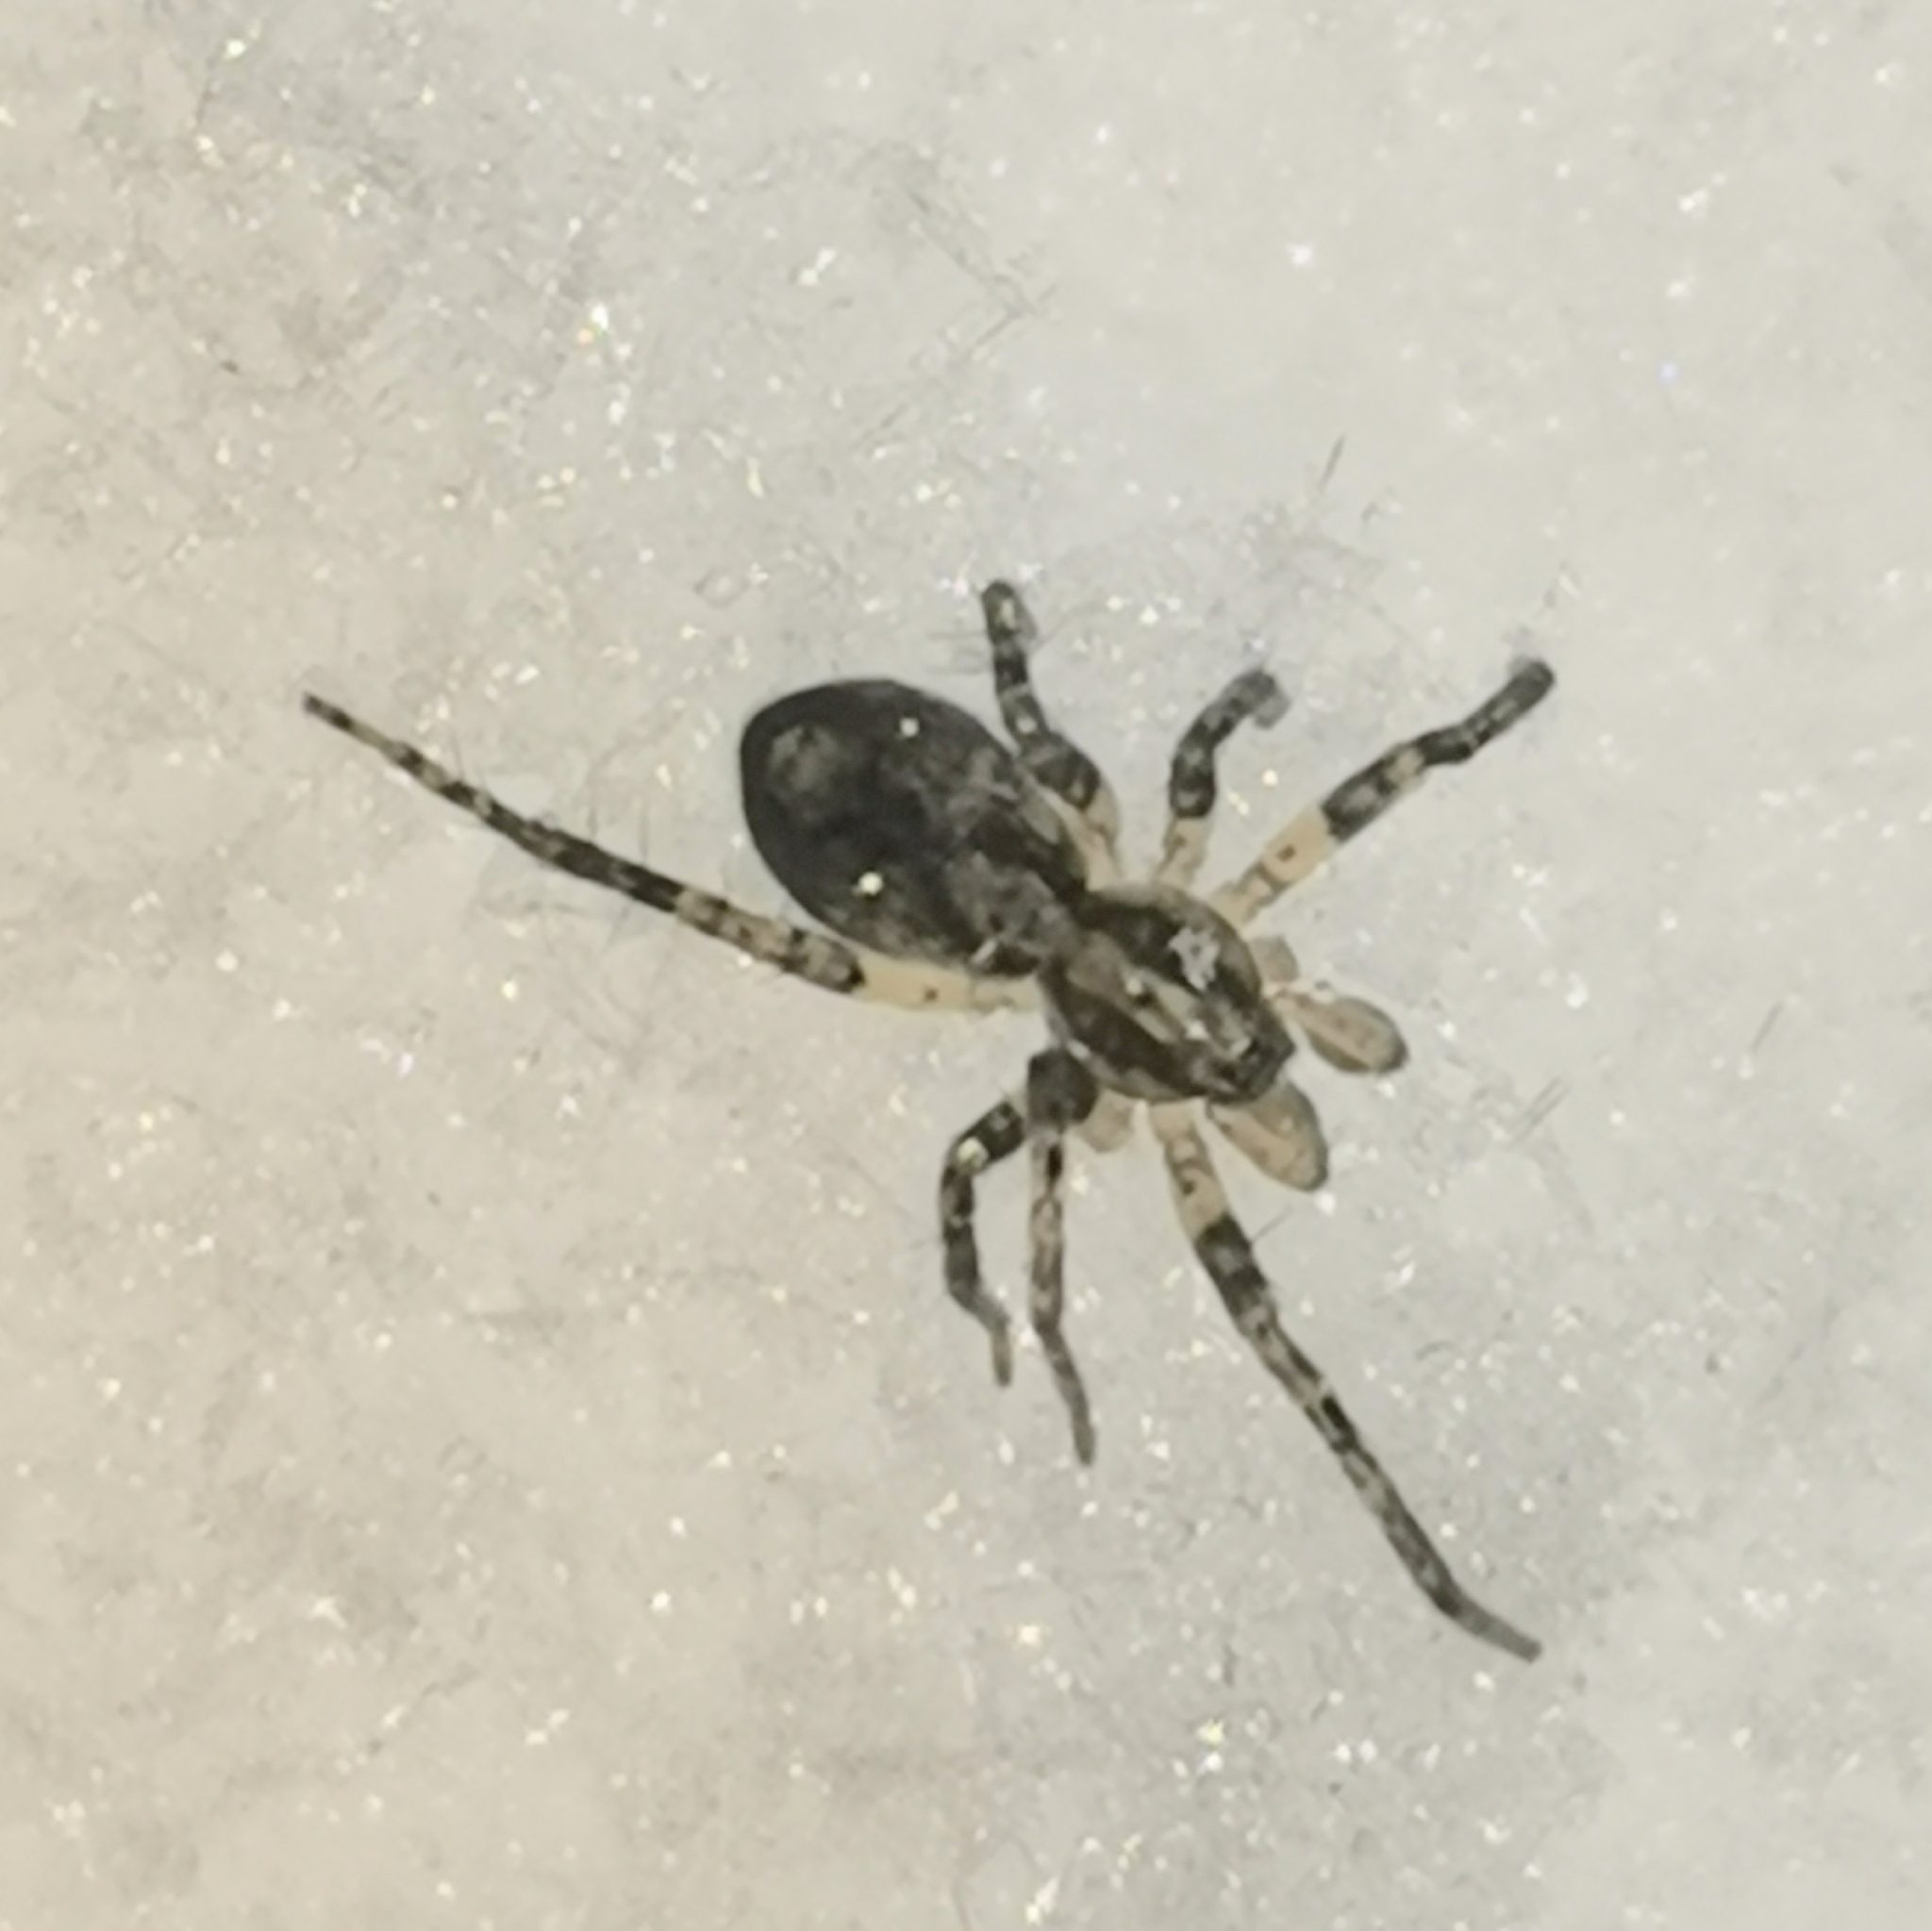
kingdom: Animalia
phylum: Arthropoda
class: Arachnida
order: Araneae
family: Anyphaenidae
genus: Anyphaena
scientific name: Anyphaena accentuata
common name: Buzzing spider
